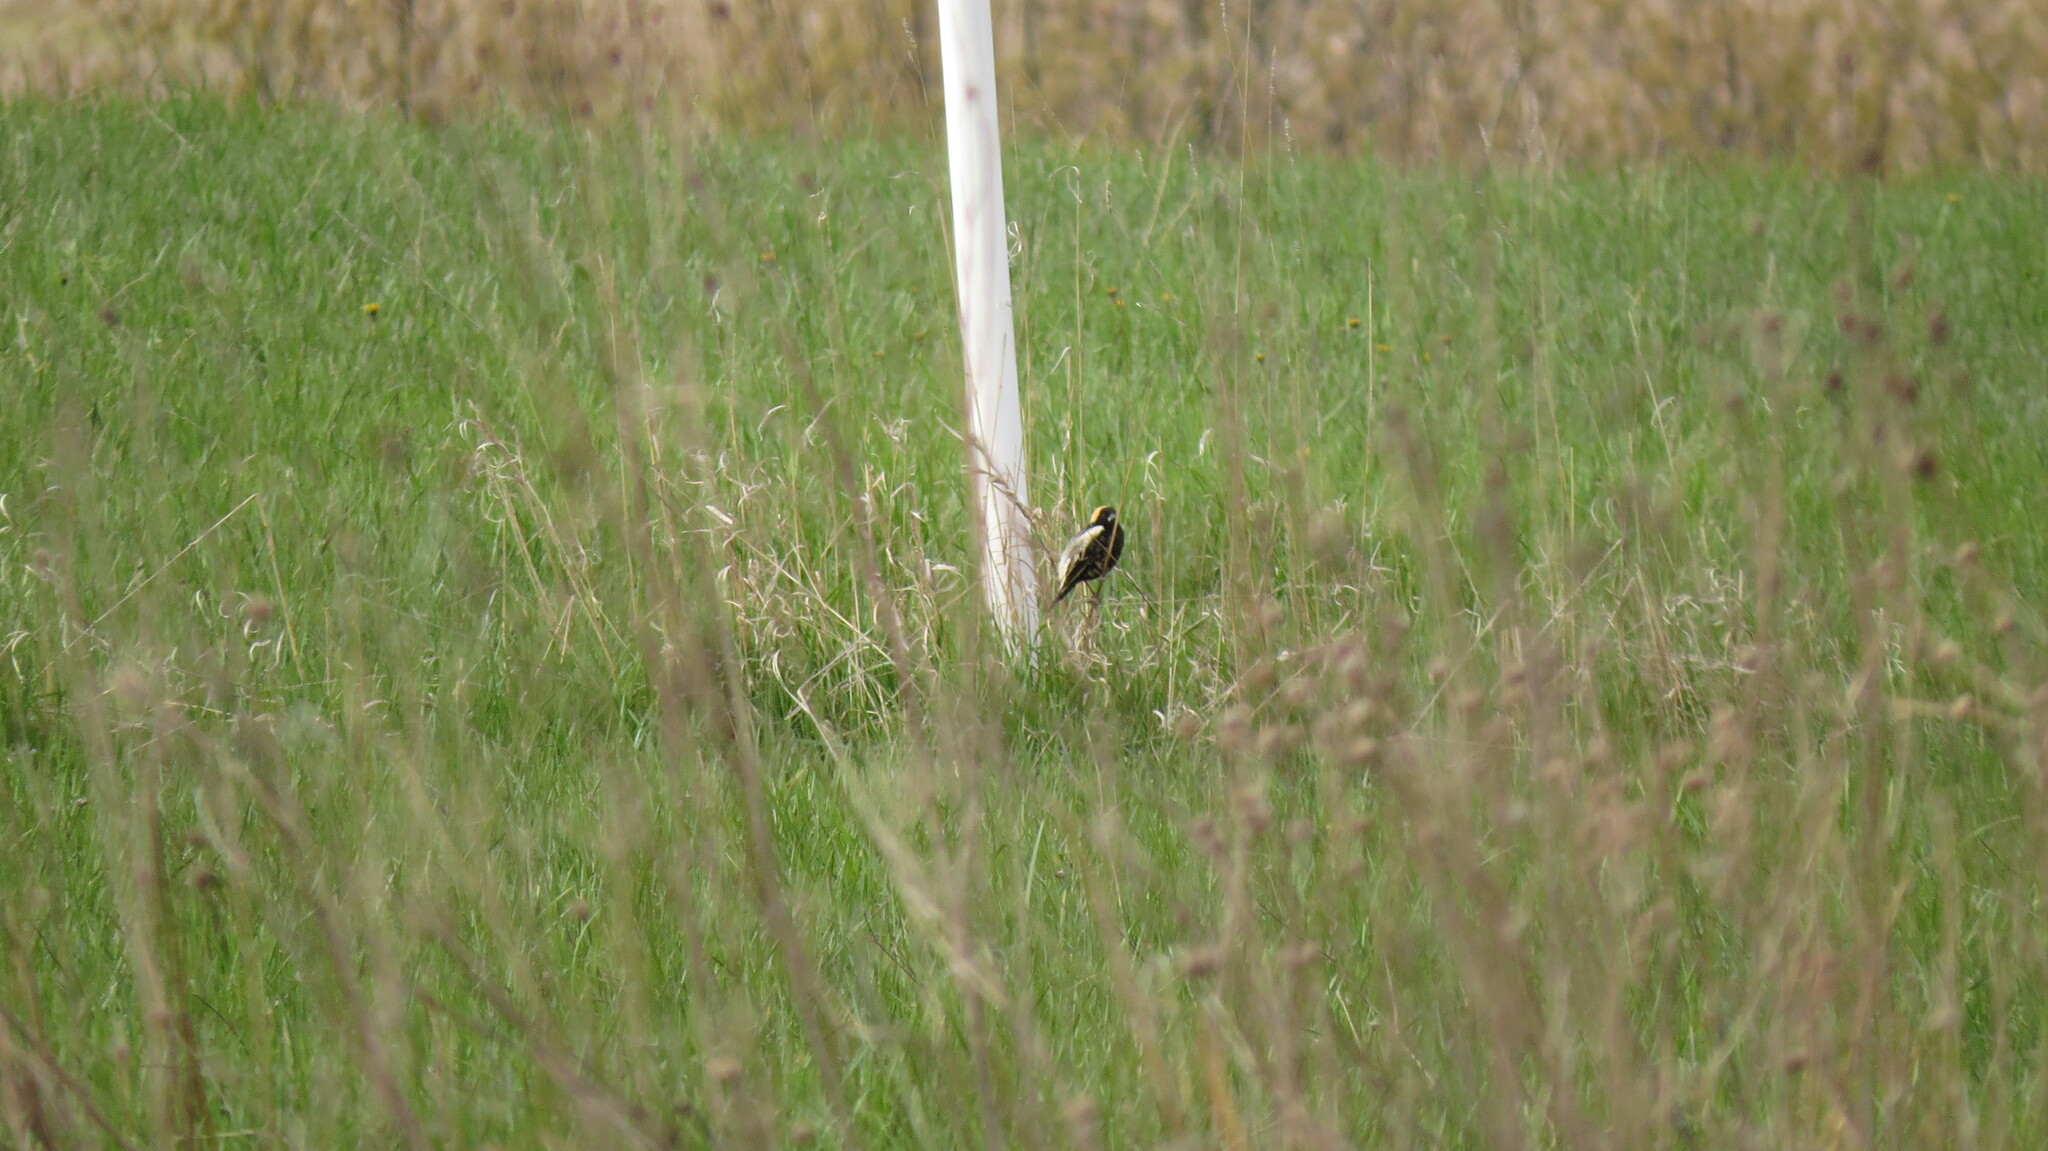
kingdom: Animalia
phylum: Chordata
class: Aves
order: Passeriformes
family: Icteridae
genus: Dolichonyx
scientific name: Dolichonyx oryzivorus
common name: Bobolink
